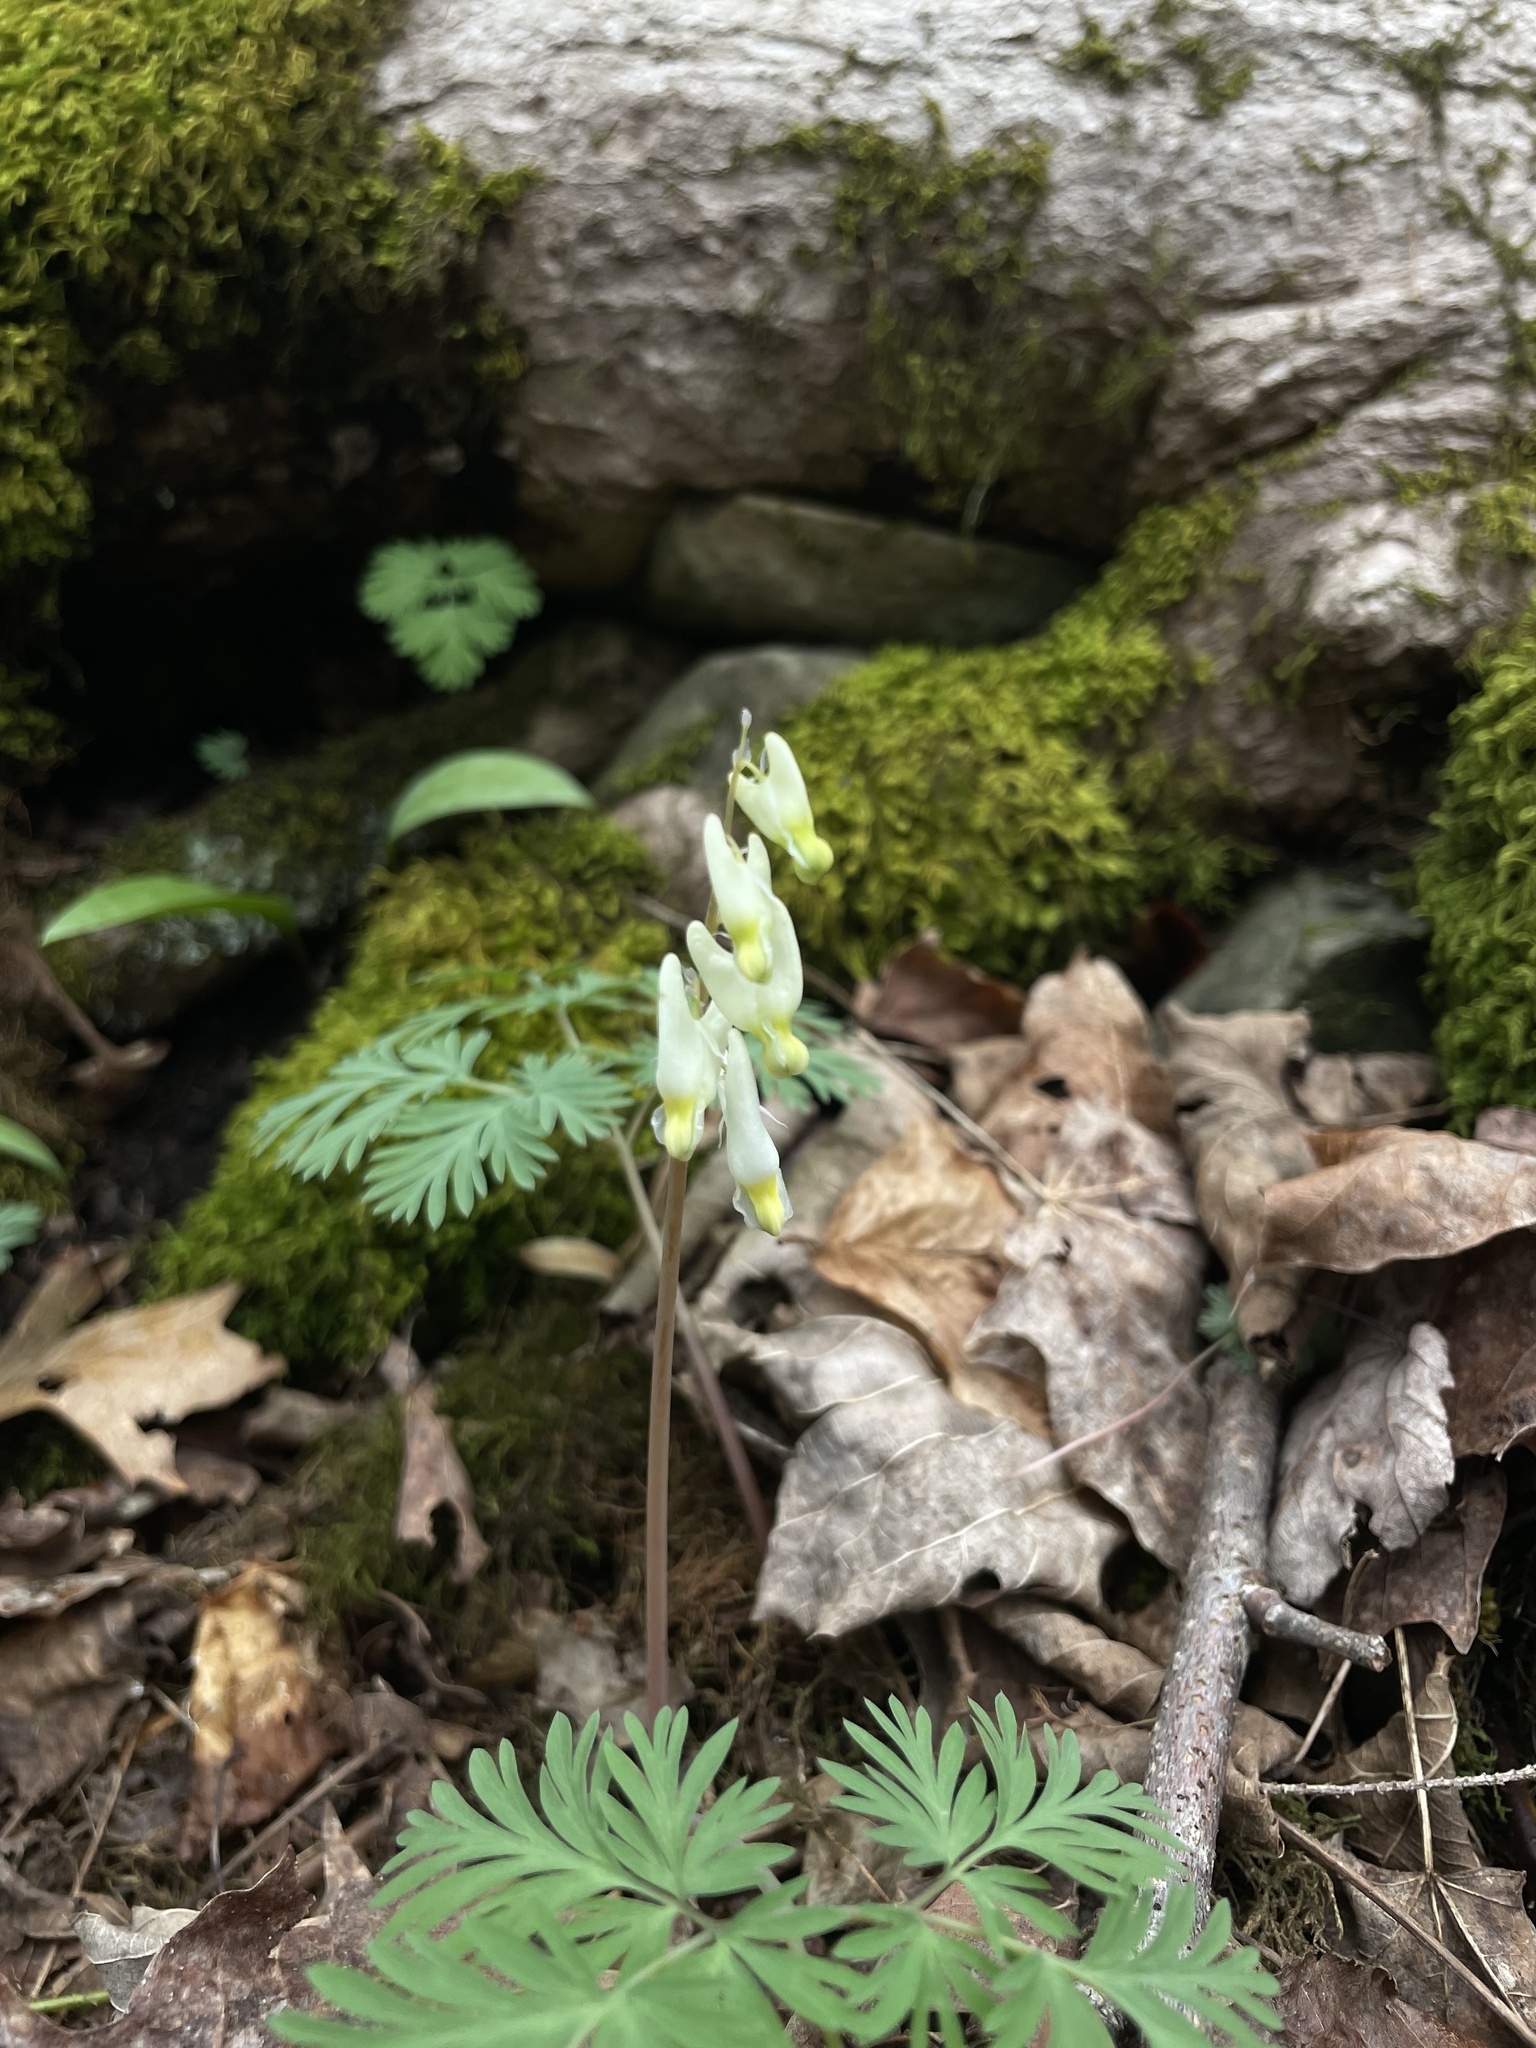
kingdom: Plantae
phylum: Tracheophyta
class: Magnoliopsida
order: Ranunculales
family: Papaveraceae
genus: Dicentra
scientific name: Dicentra cucullaria
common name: Dutchman's breeches
